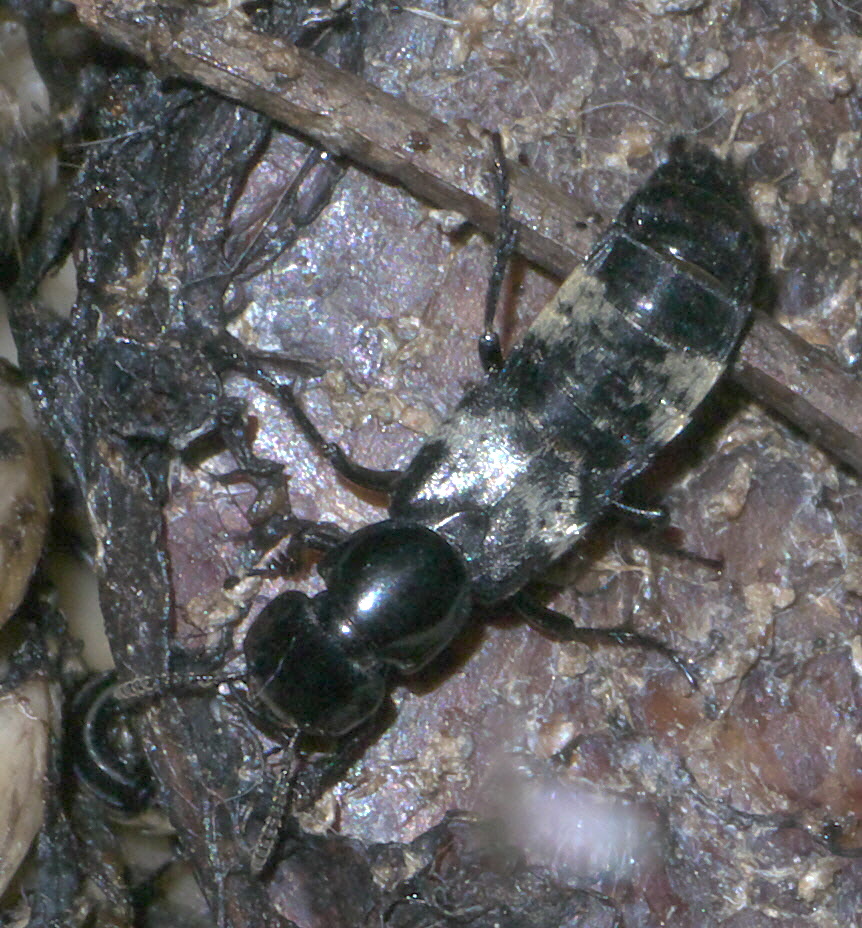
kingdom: Animalia
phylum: Arthropoda
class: Insecta
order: Coleoptera
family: Staphylinidae
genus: Creophilus
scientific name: Creophilus maxillosus
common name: Hairy rove beetle
